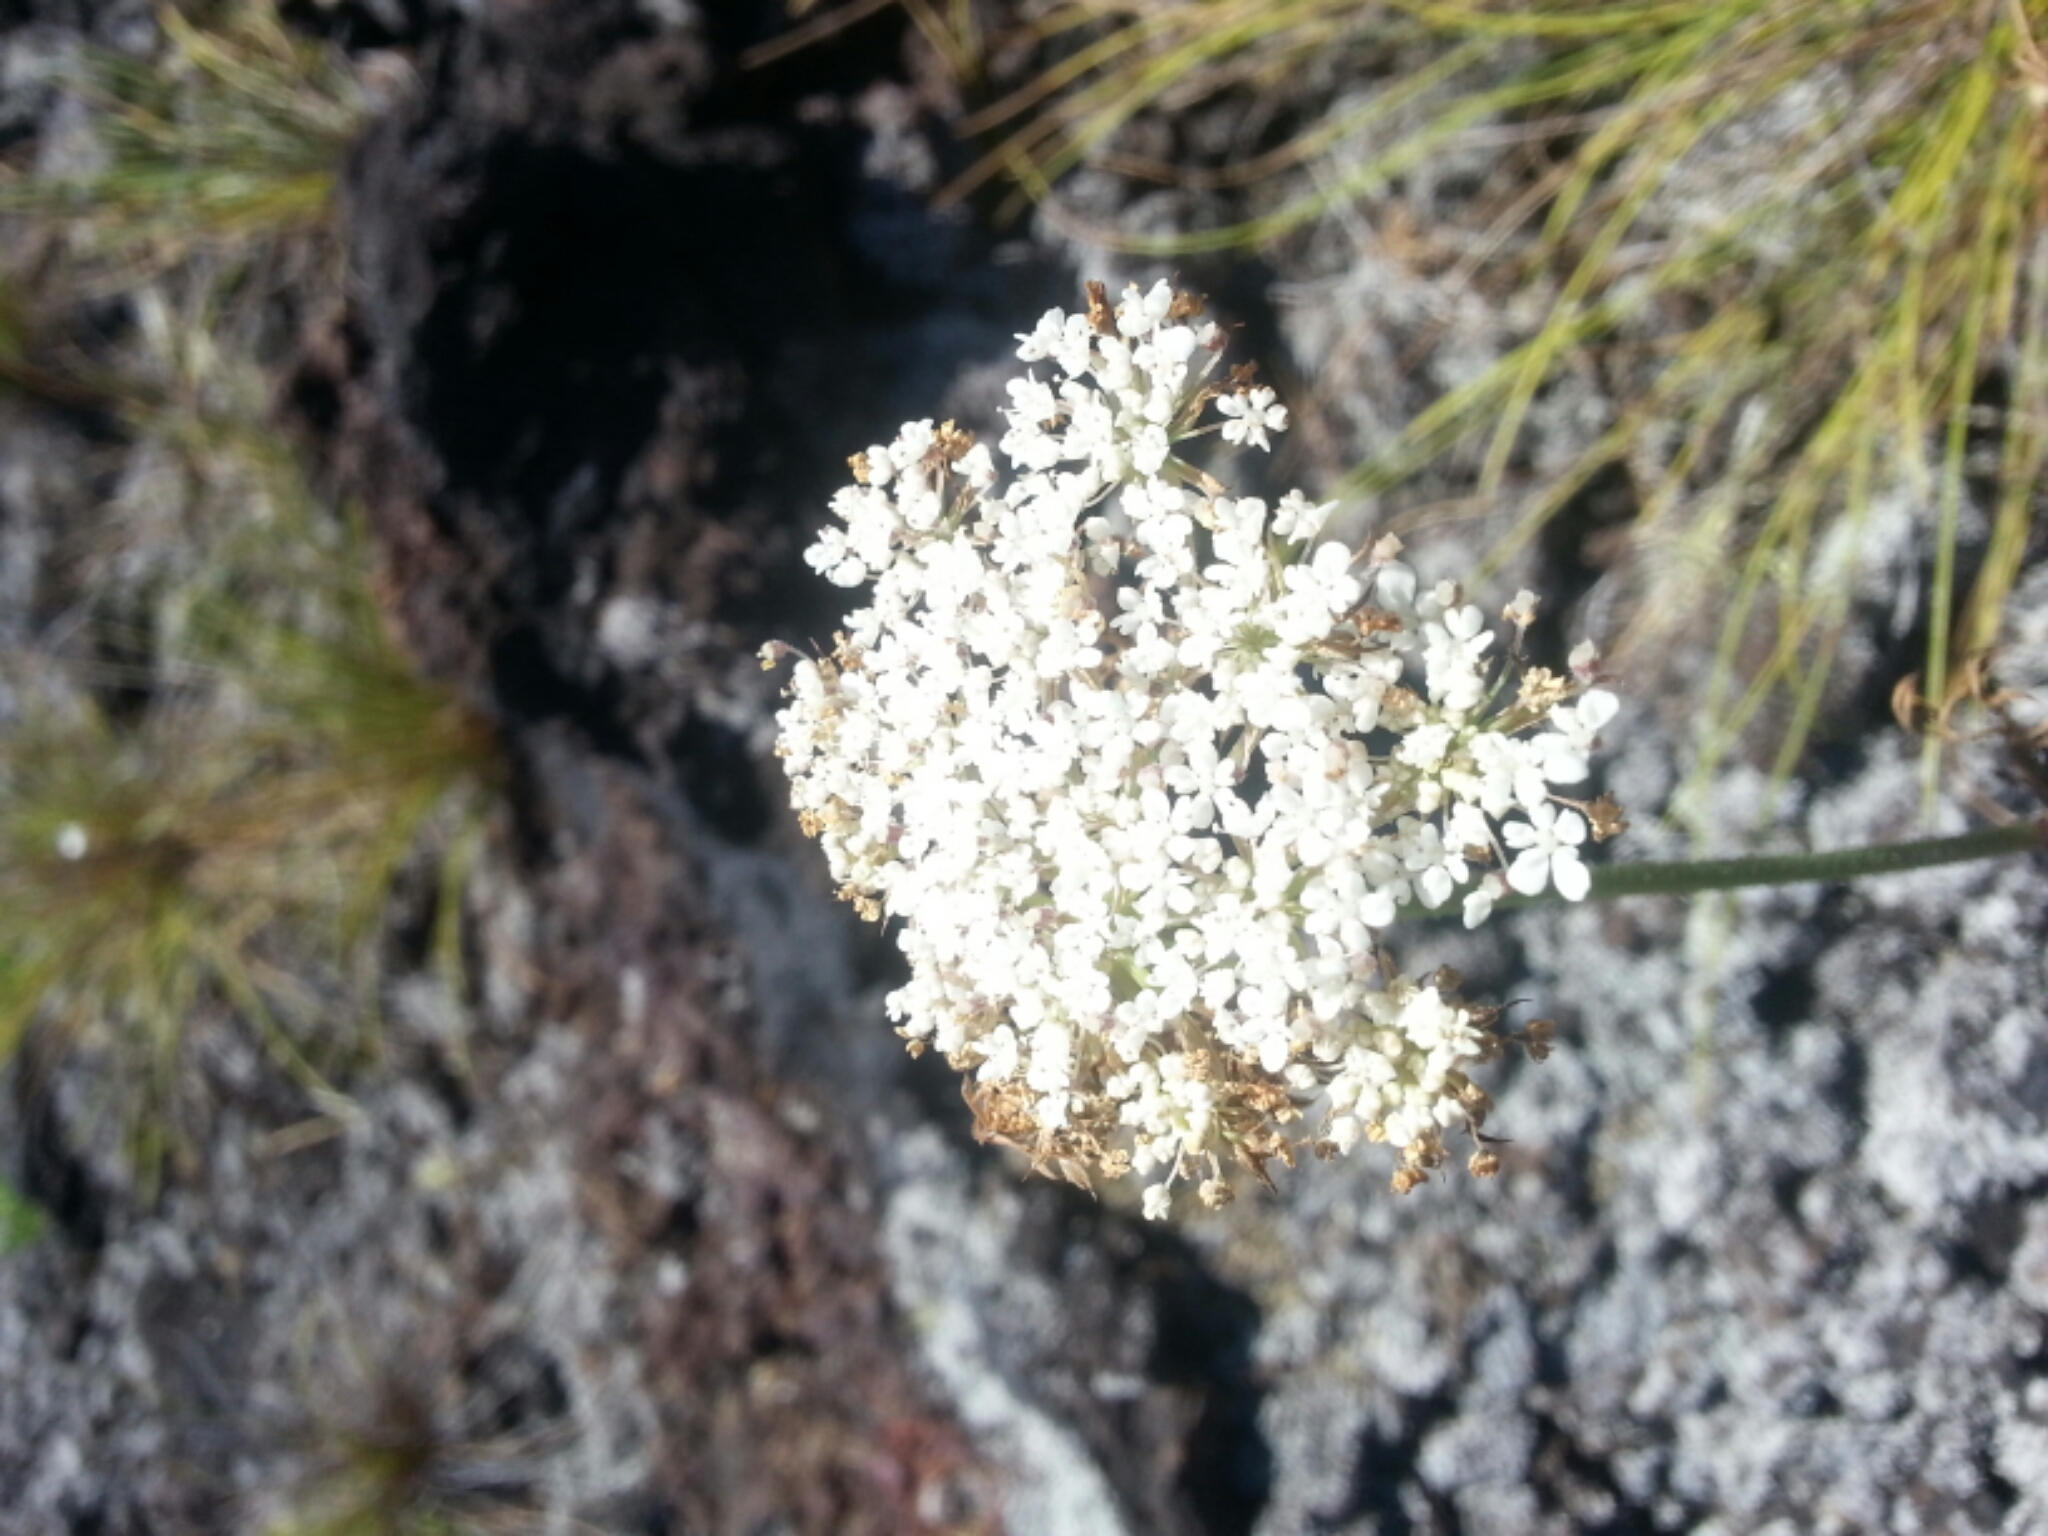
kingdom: Plantae
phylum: Tracheophyta
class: Magnoliopsida
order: Apiales
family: Apiaceae
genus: Daucus
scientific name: Daucus carota
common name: Wild carrot
